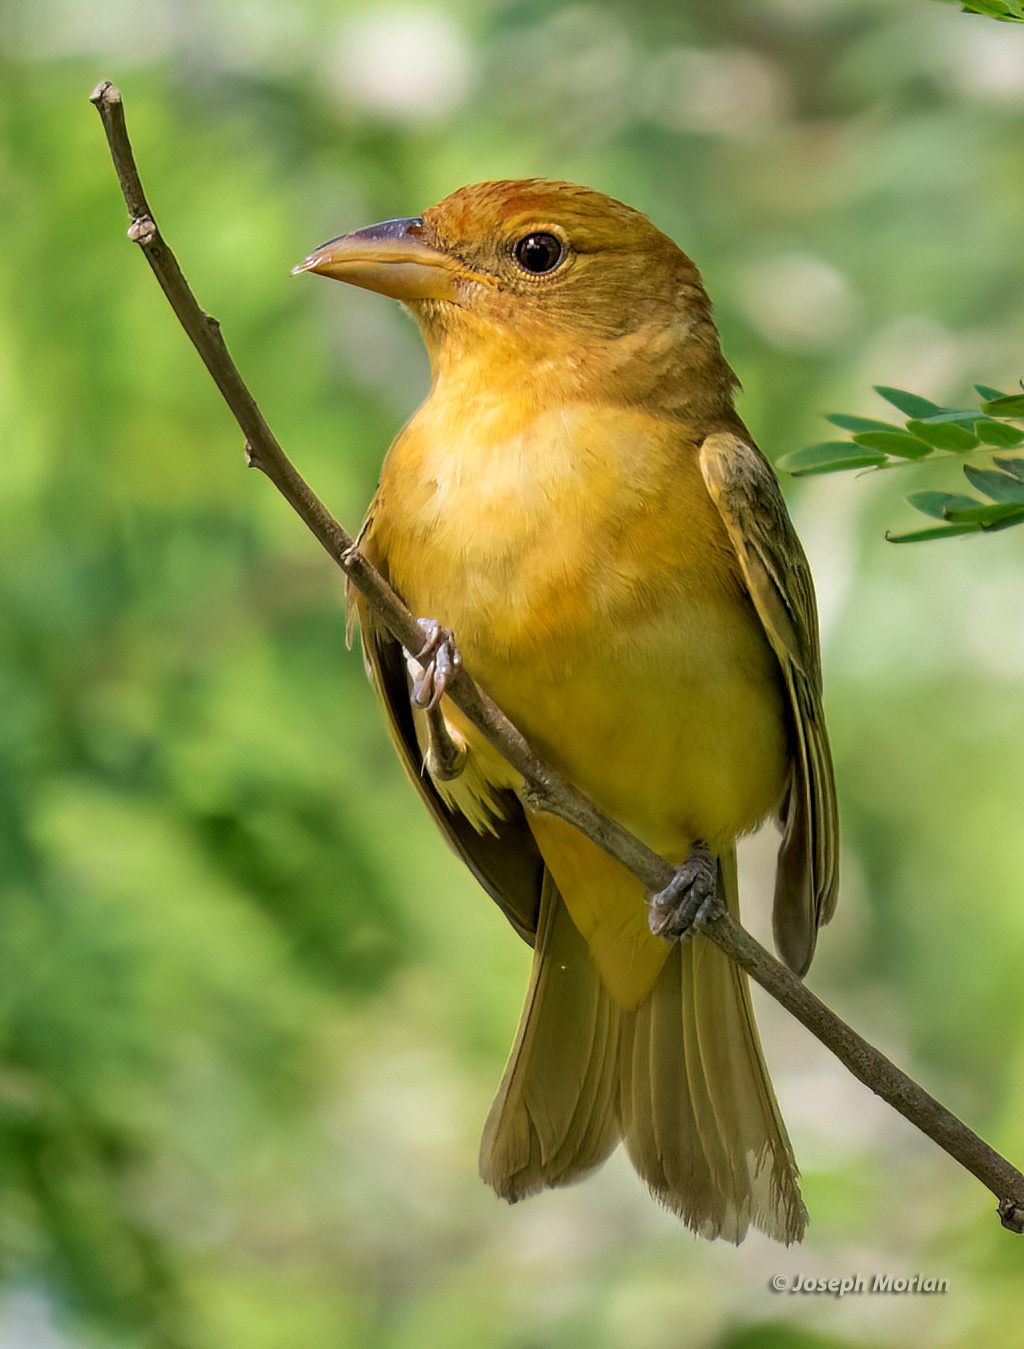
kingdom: Animalia
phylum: Chordata
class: Aves
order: Passeriformes
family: Cardinalidae
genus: Piranga
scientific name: Piranga rubra
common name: Summer tanager
